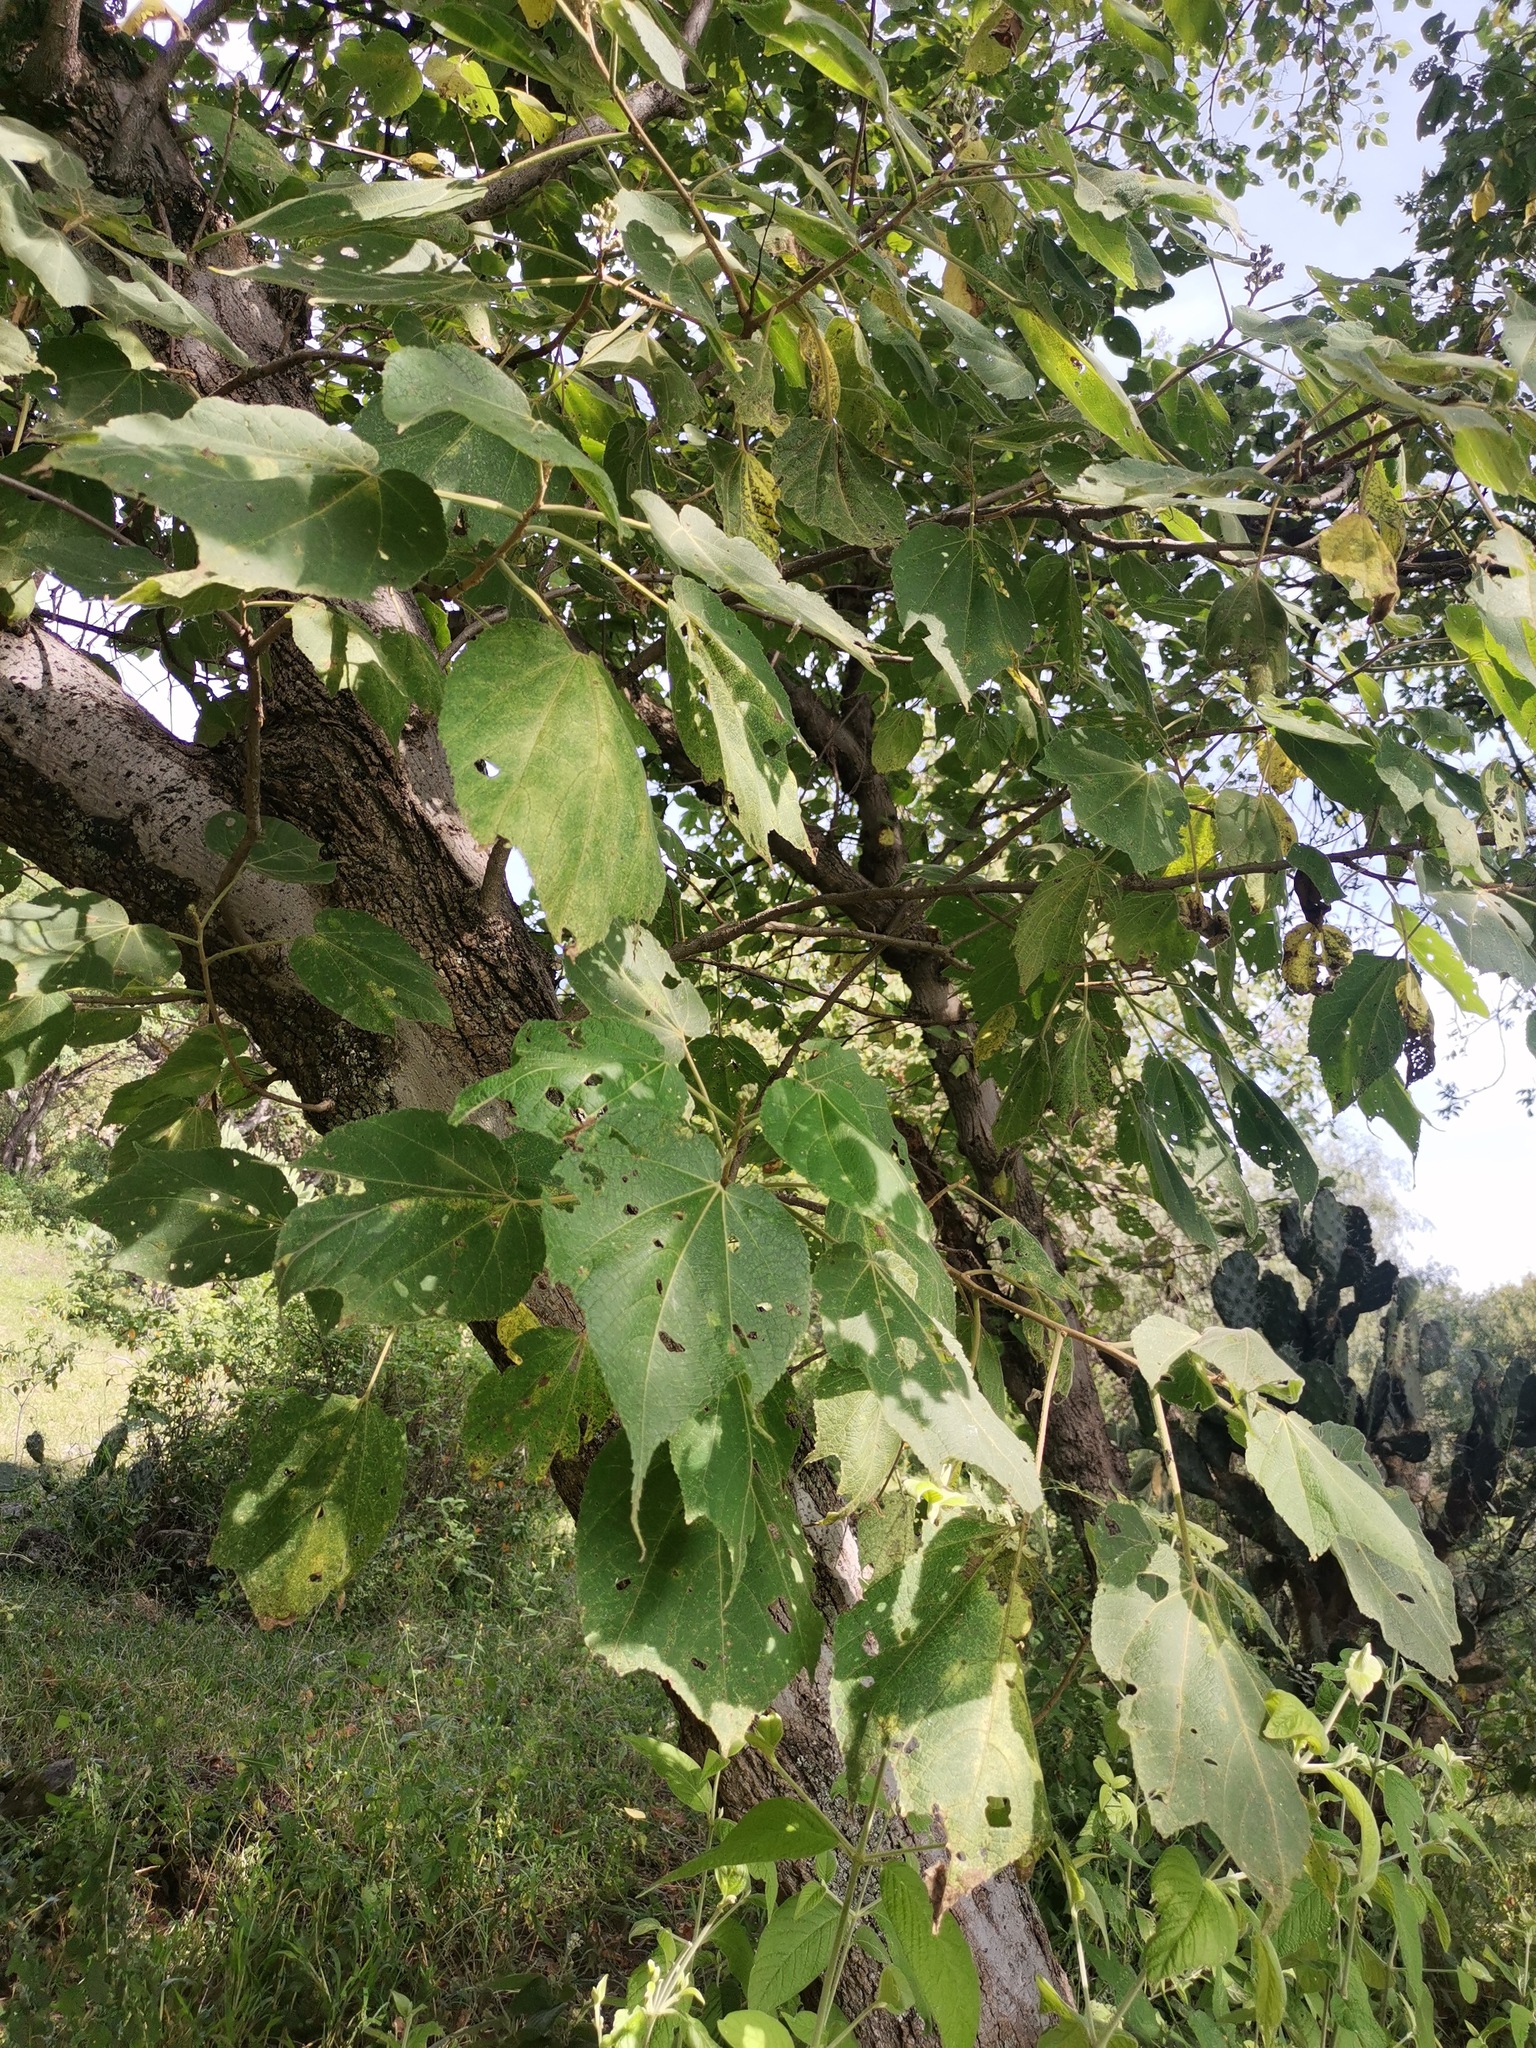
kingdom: Plantae
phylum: Tracheophyta
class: Magnoliopsida
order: Malvales
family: Malvaceae
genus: Heliocarpus
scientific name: Heliocarpus terebinthinaceus
